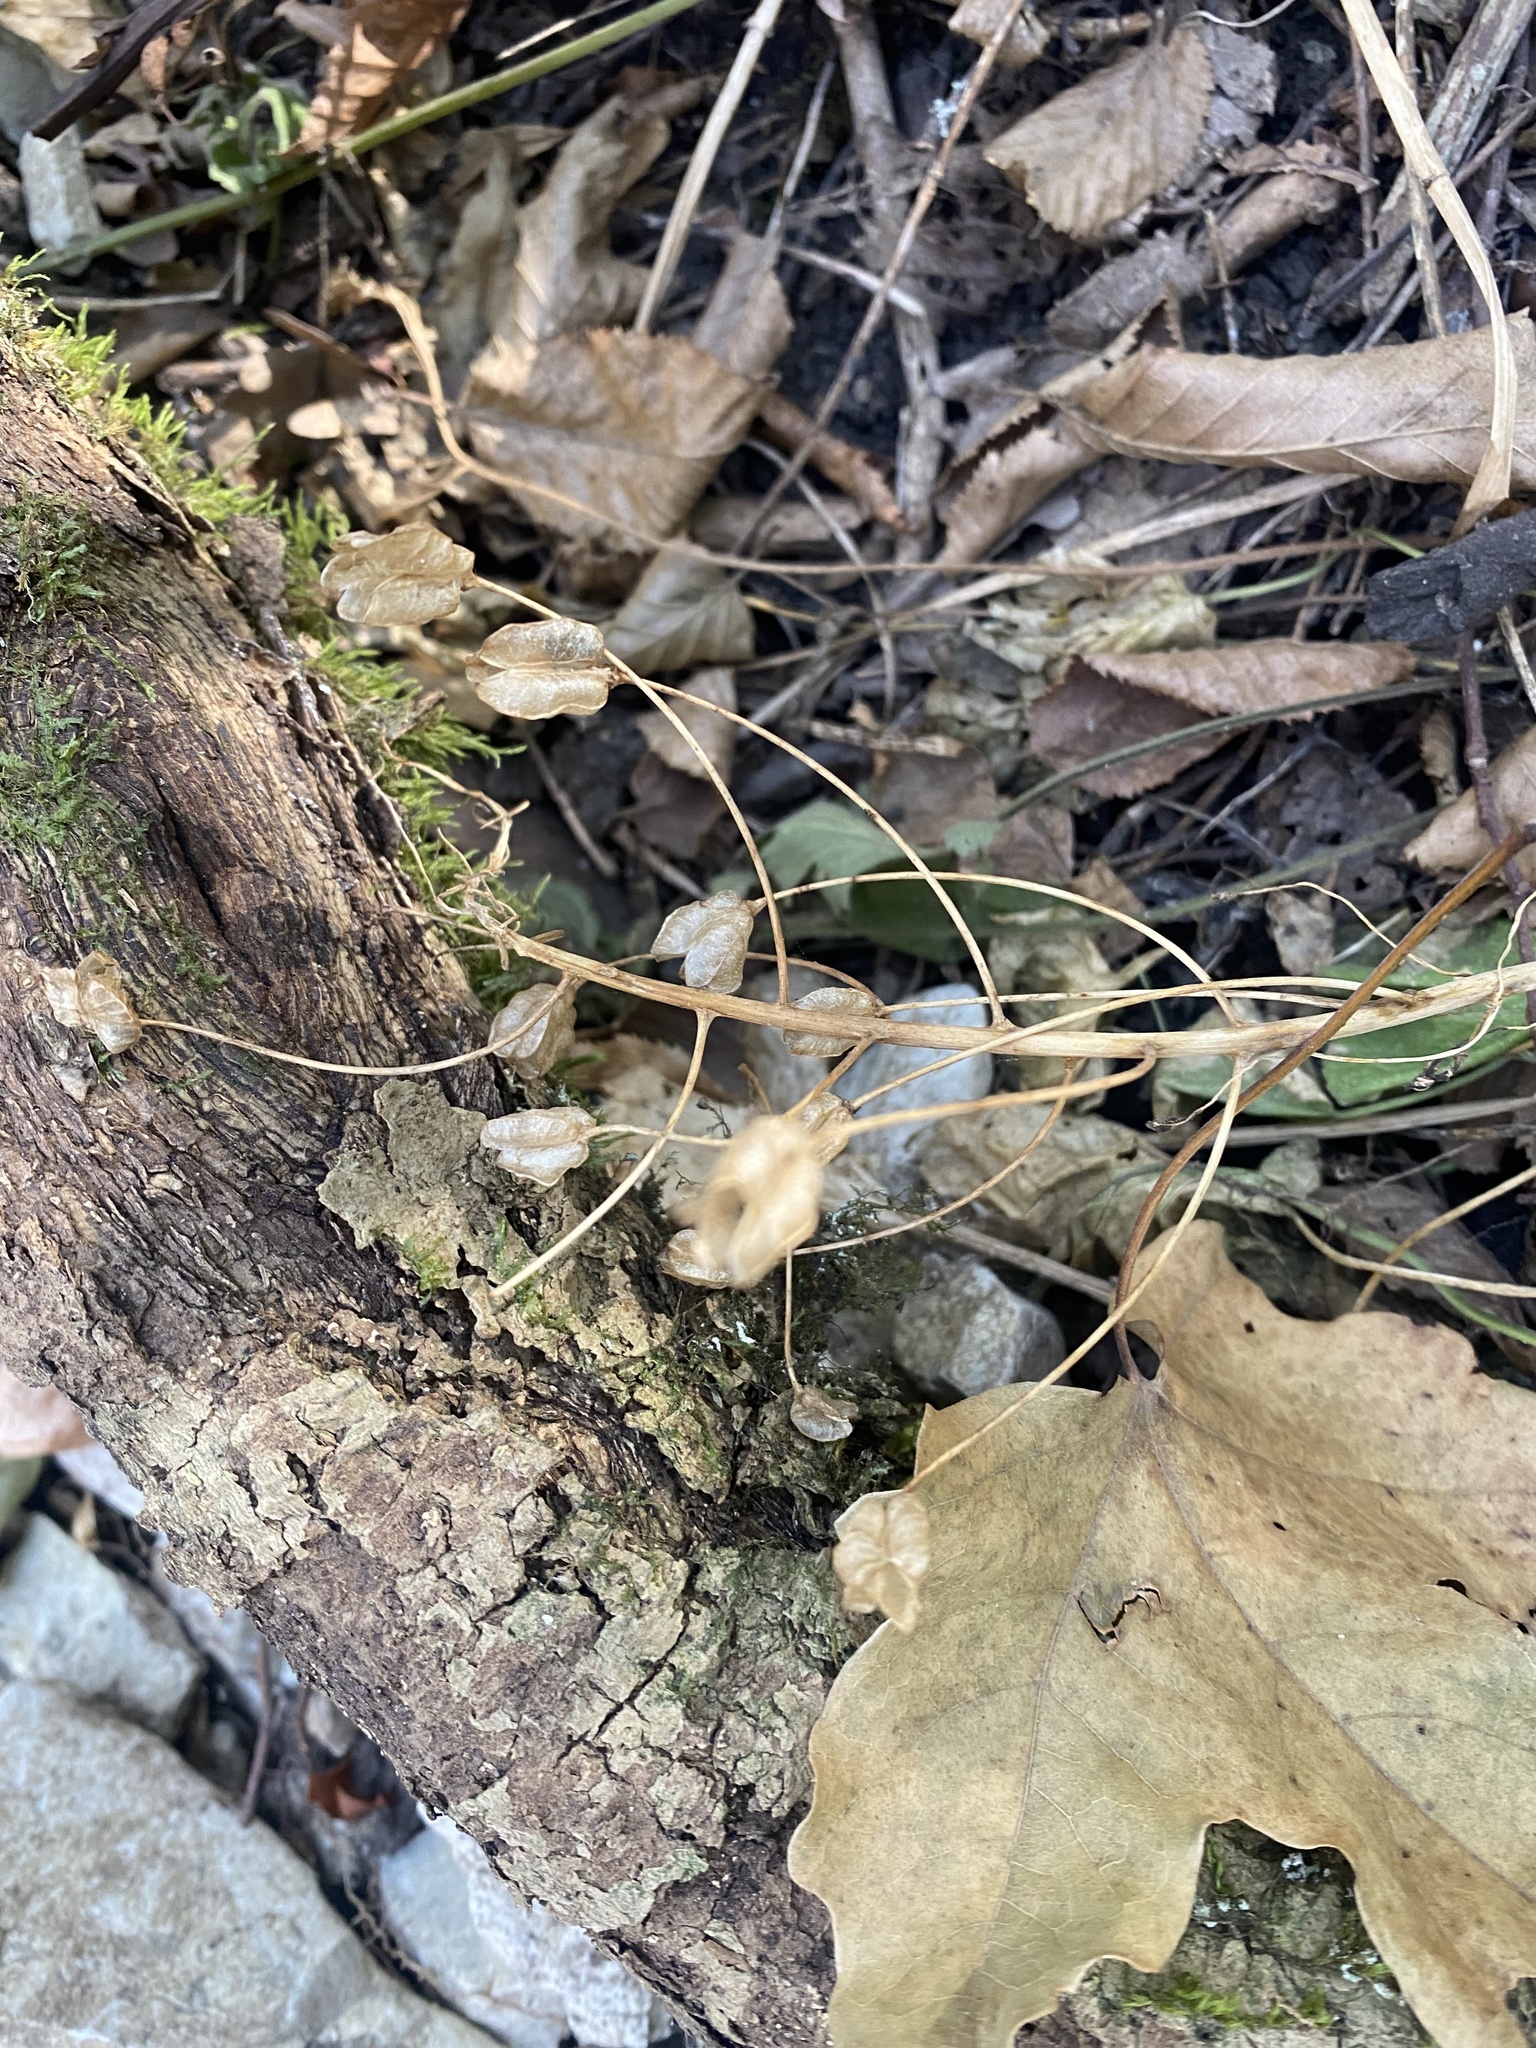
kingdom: Plantae
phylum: Tracheophyta
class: Liliopsida
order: Asparagales
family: Asparagaceae
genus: Ornithogalum
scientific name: Ornithogalum arcuatum
